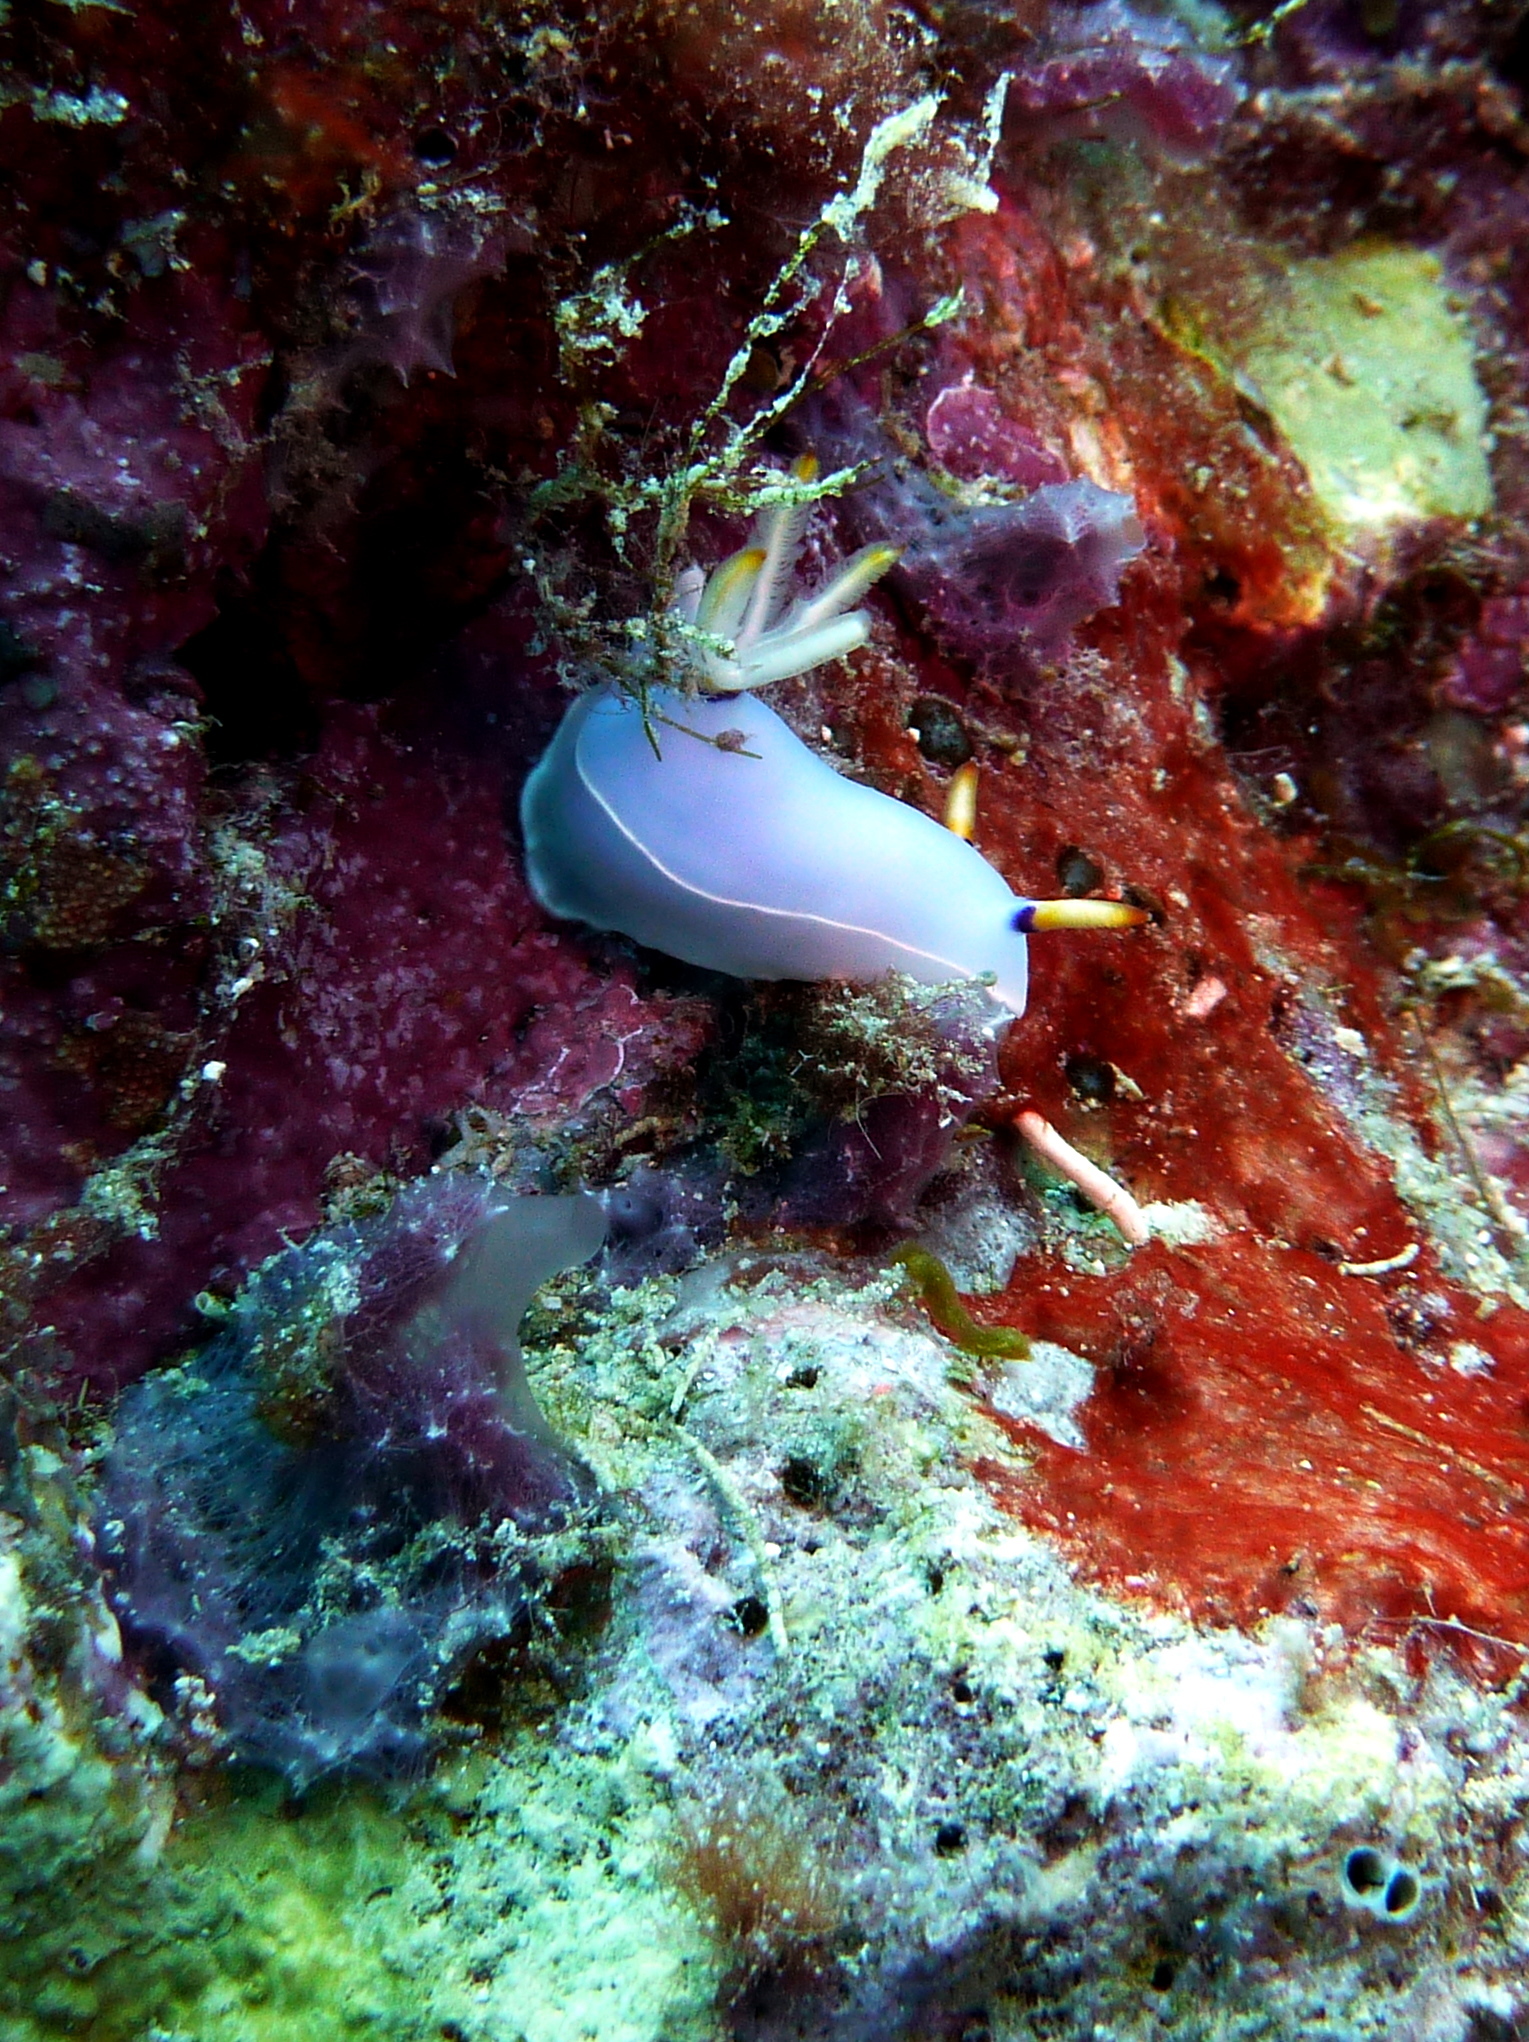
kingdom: Animalia
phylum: Mollusca
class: Gastropoda
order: Nudibranchia
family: Chromodorididae
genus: Hypselodoris
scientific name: Hypselodoris bullockii
